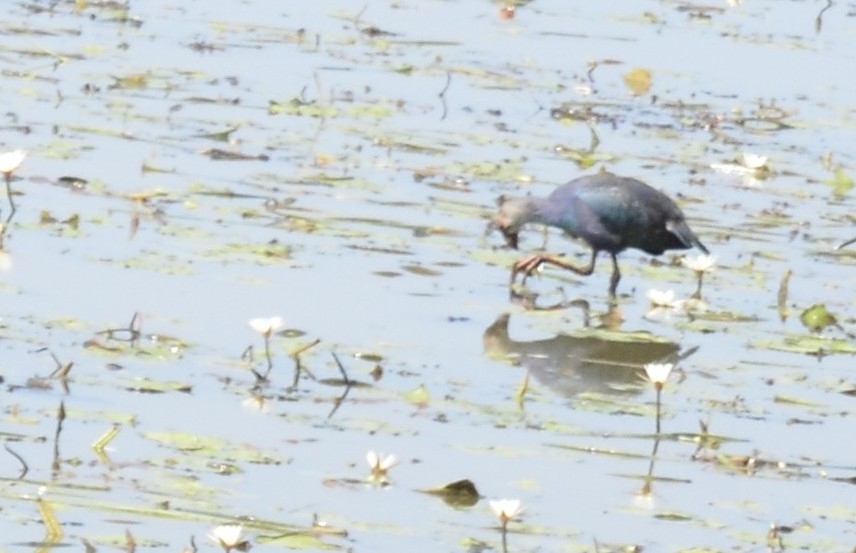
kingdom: Animalia
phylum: Chordata
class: Aves
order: Gruiformes
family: Rallidae
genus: Porphyrio
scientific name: Porphyrio porphyrio
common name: Purple swamphen
